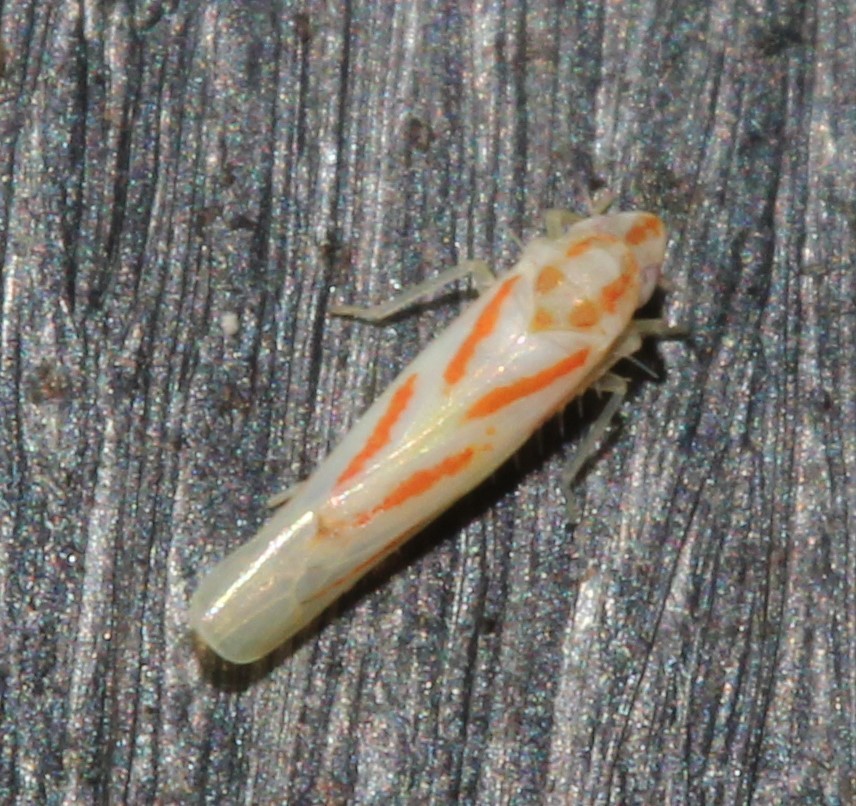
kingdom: Animalia
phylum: Arthropoda
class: Insecta
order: Hemiptera
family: Cicadellidae
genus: Dikrella
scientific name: Dikrella cruentata
